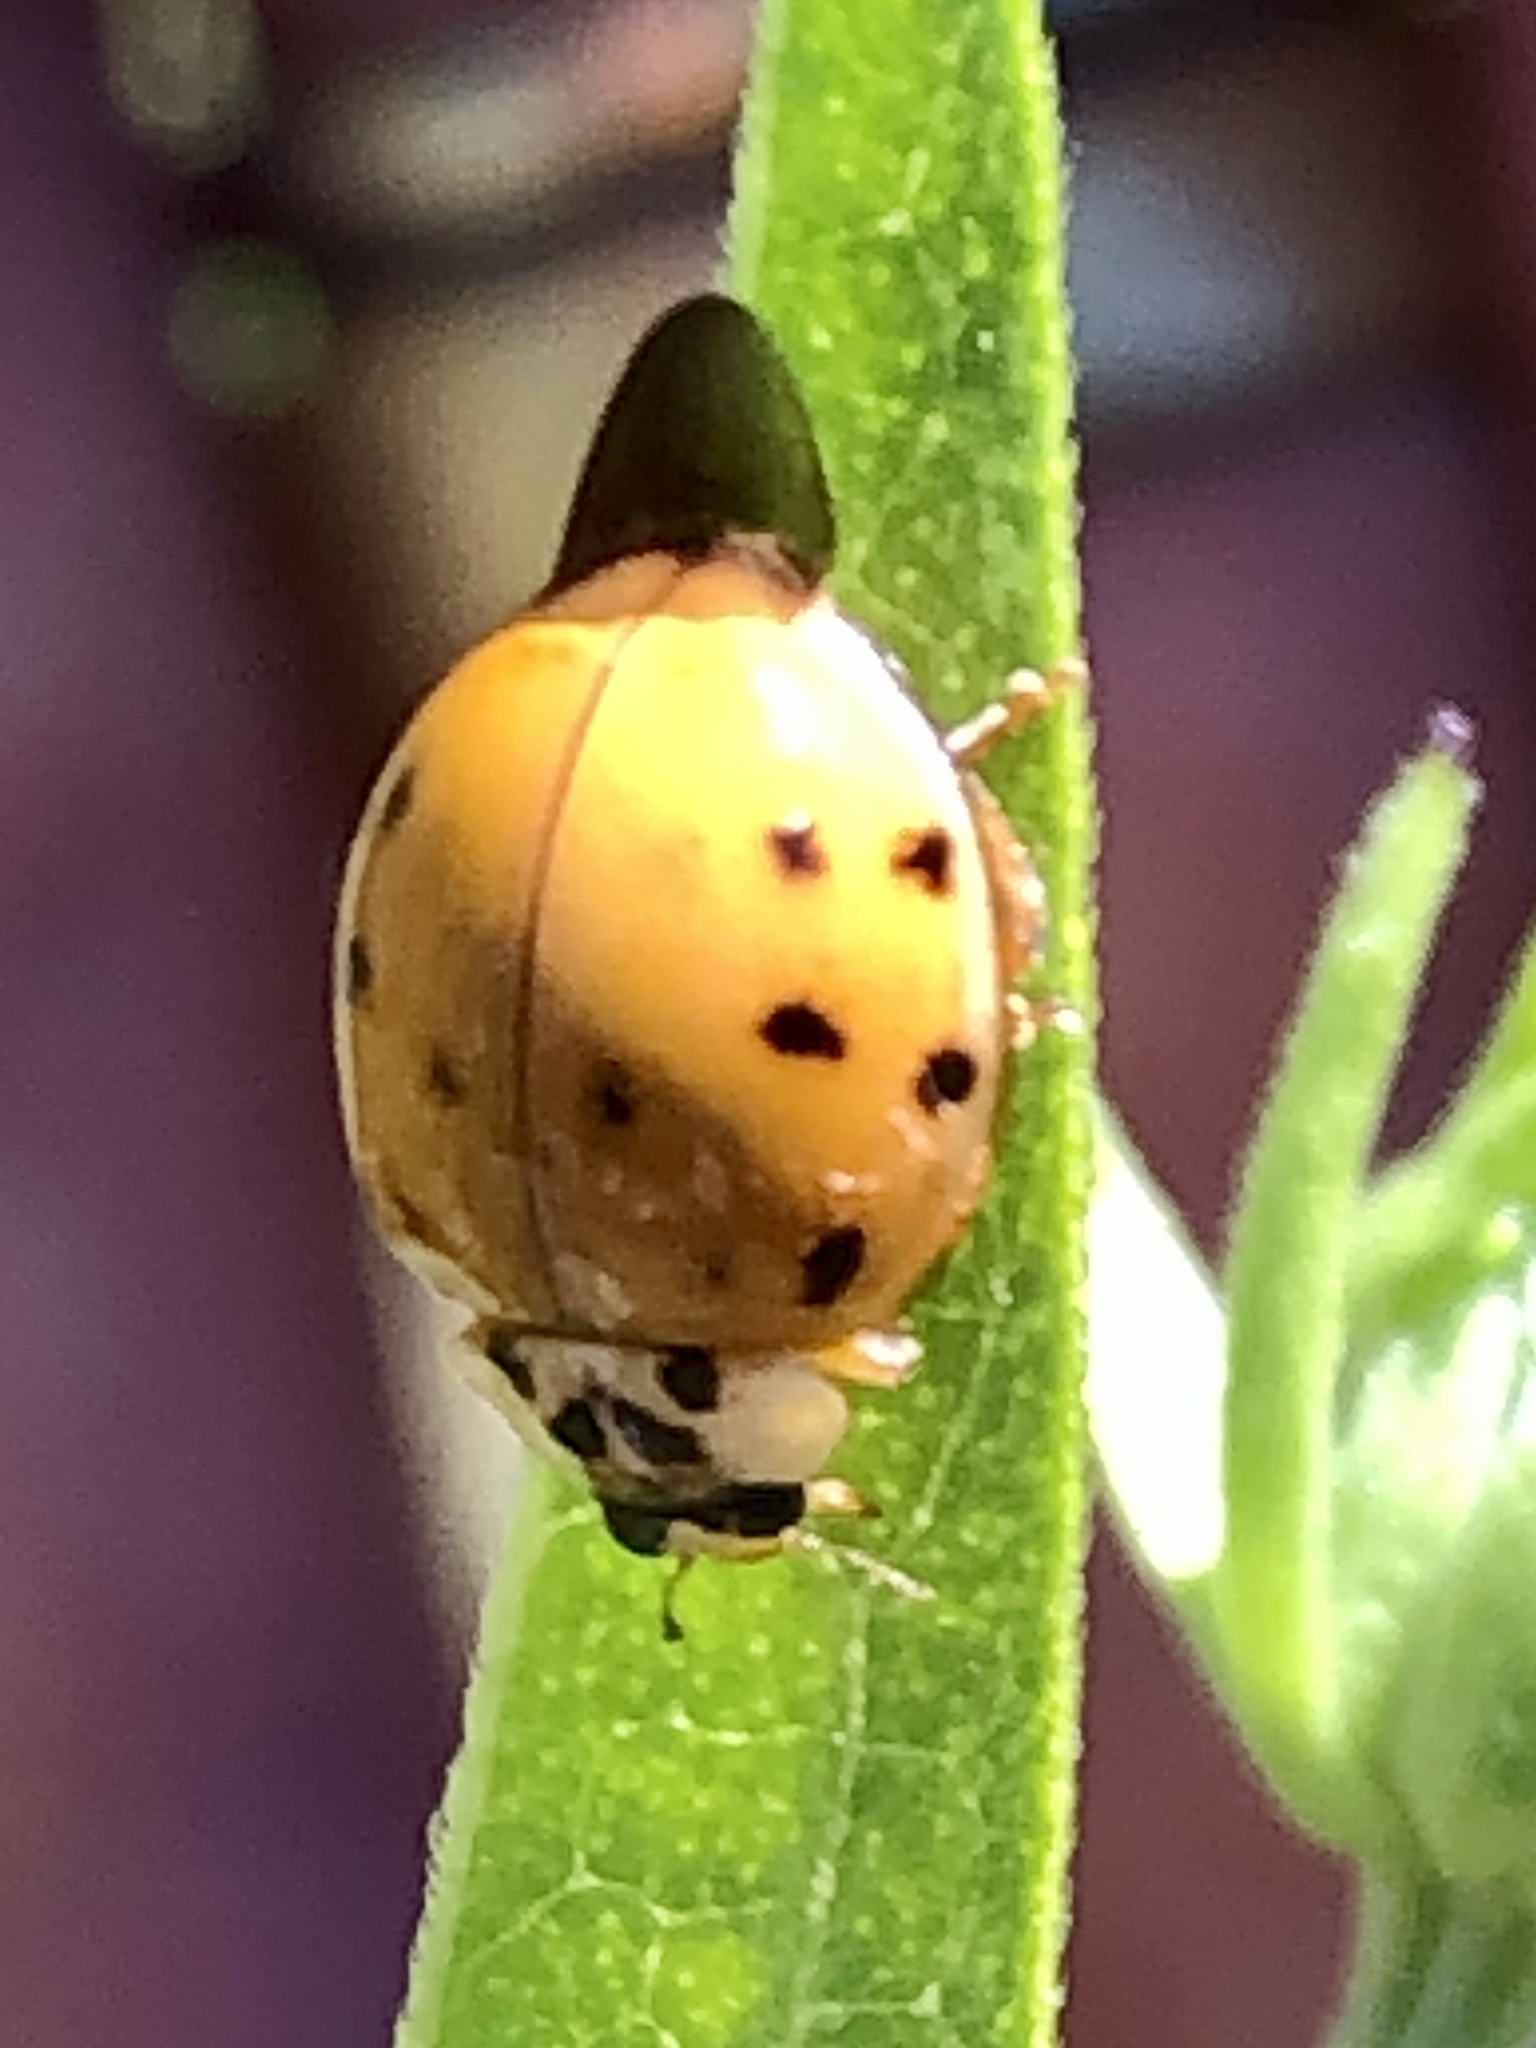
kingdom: Animalia
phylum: Arthropoda
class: Insecta
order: Coleoptera
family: Coccinellidae
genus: Harmonia
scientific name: Harmonia axyridis
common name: Harlequin ladybird
